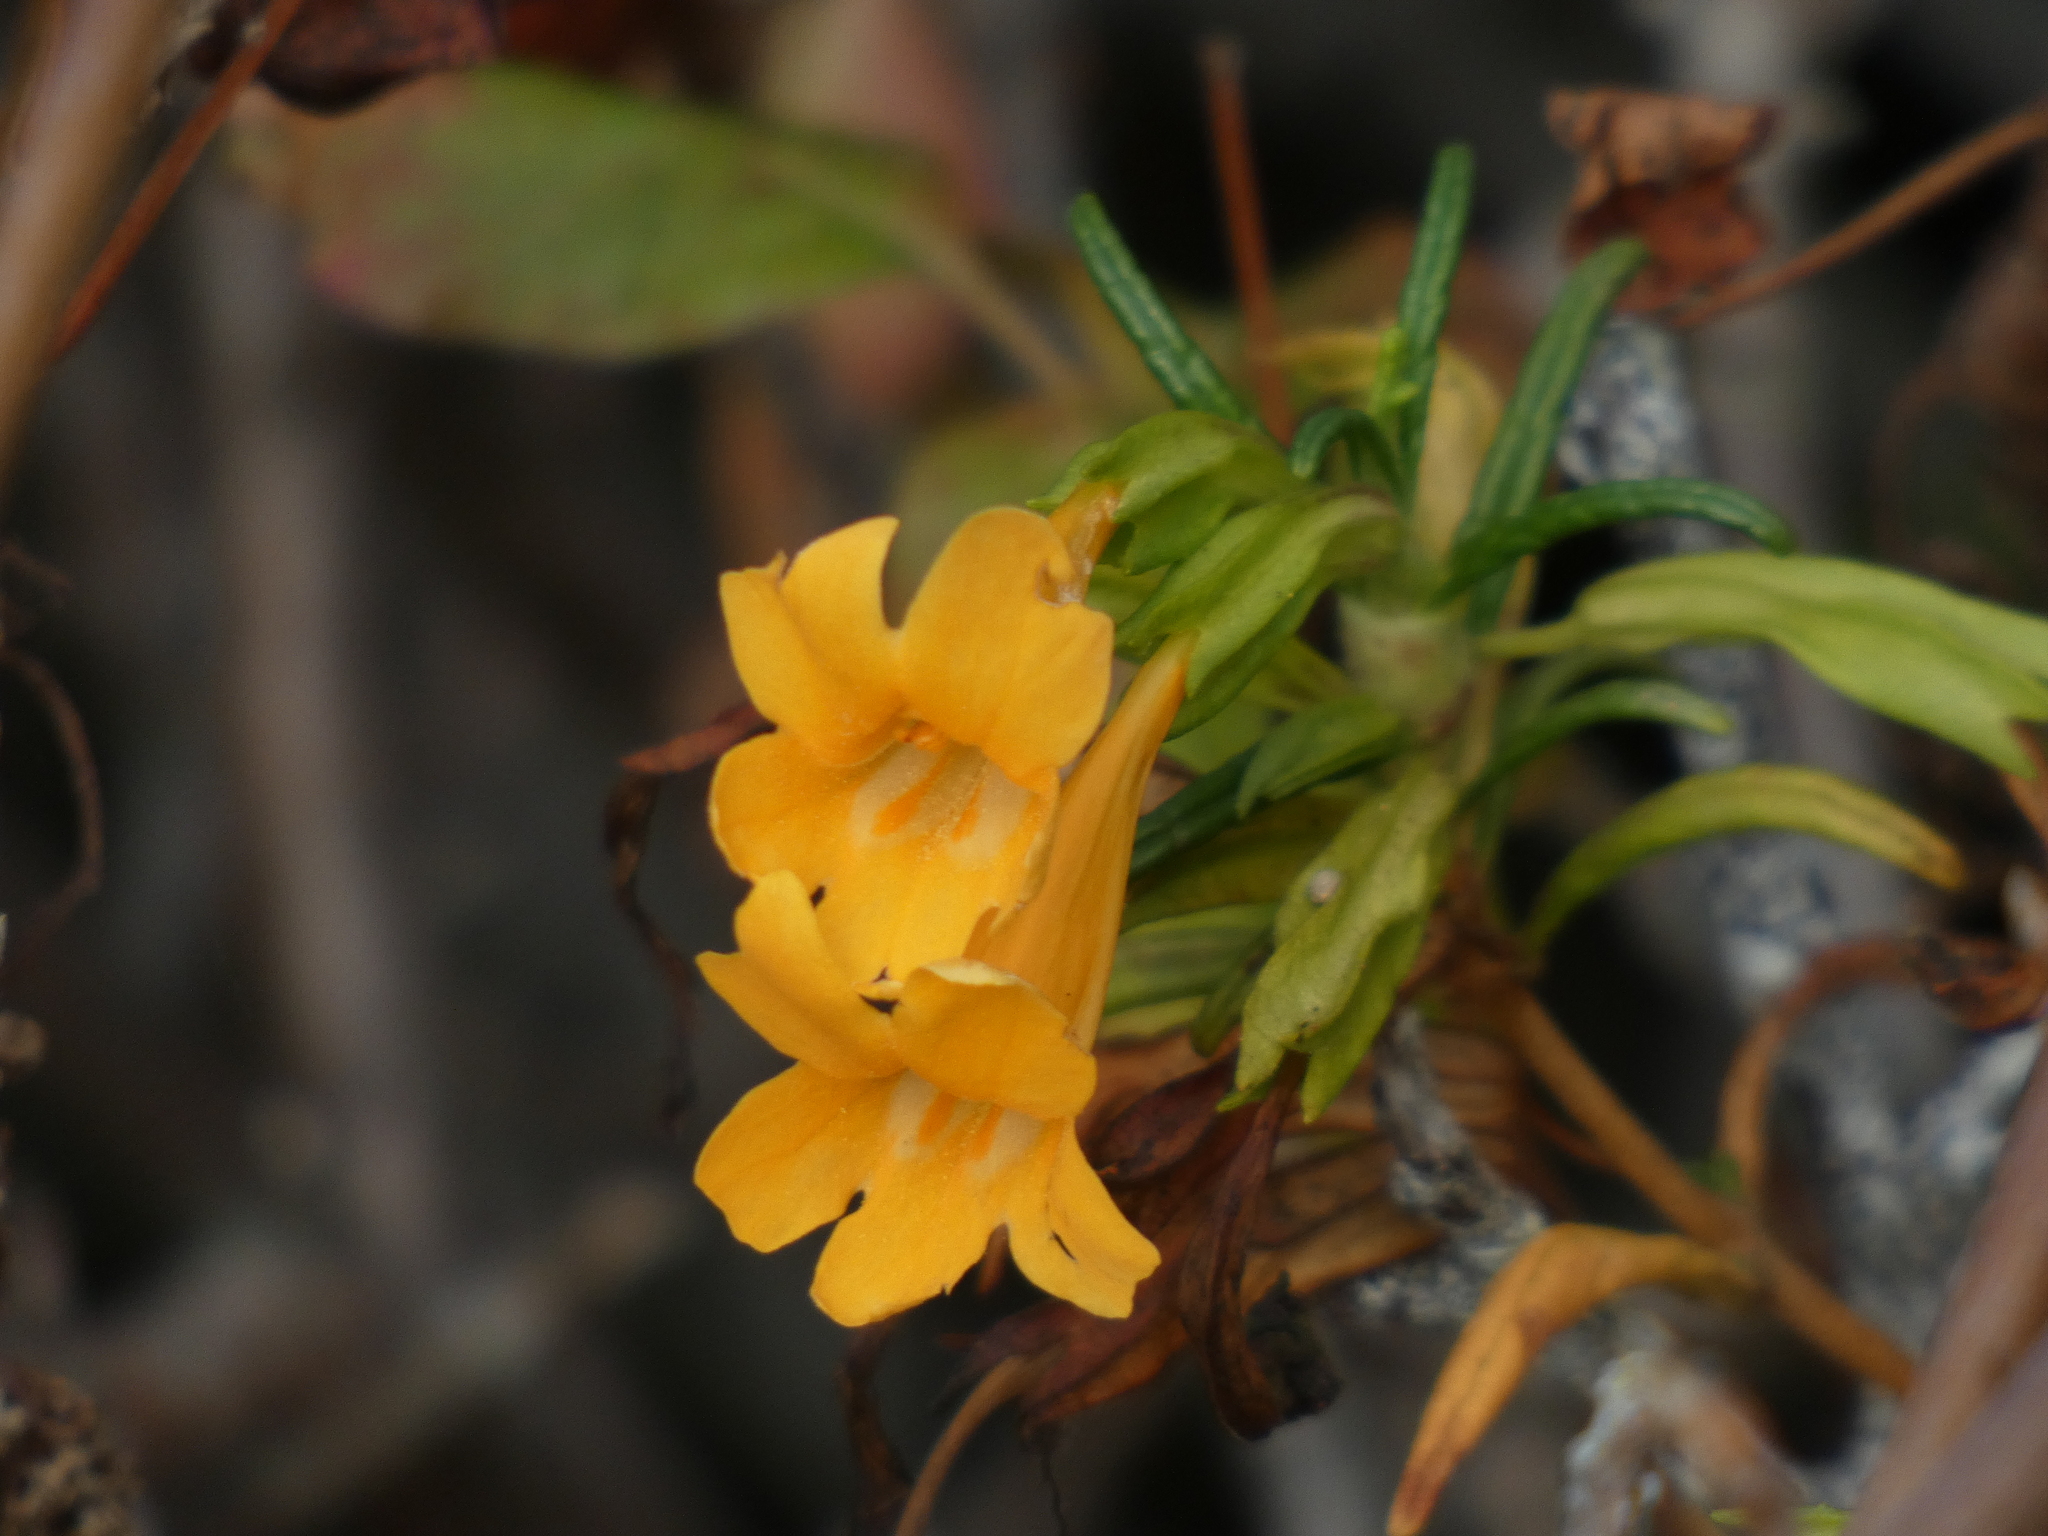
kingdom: Plantae
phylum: Tracheophyta
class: Magnoliopsida
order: Lamiales
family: Phrymaceae
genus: Diplacus
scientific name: Diplacus aurantiacus
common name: Bush monkey-flower
